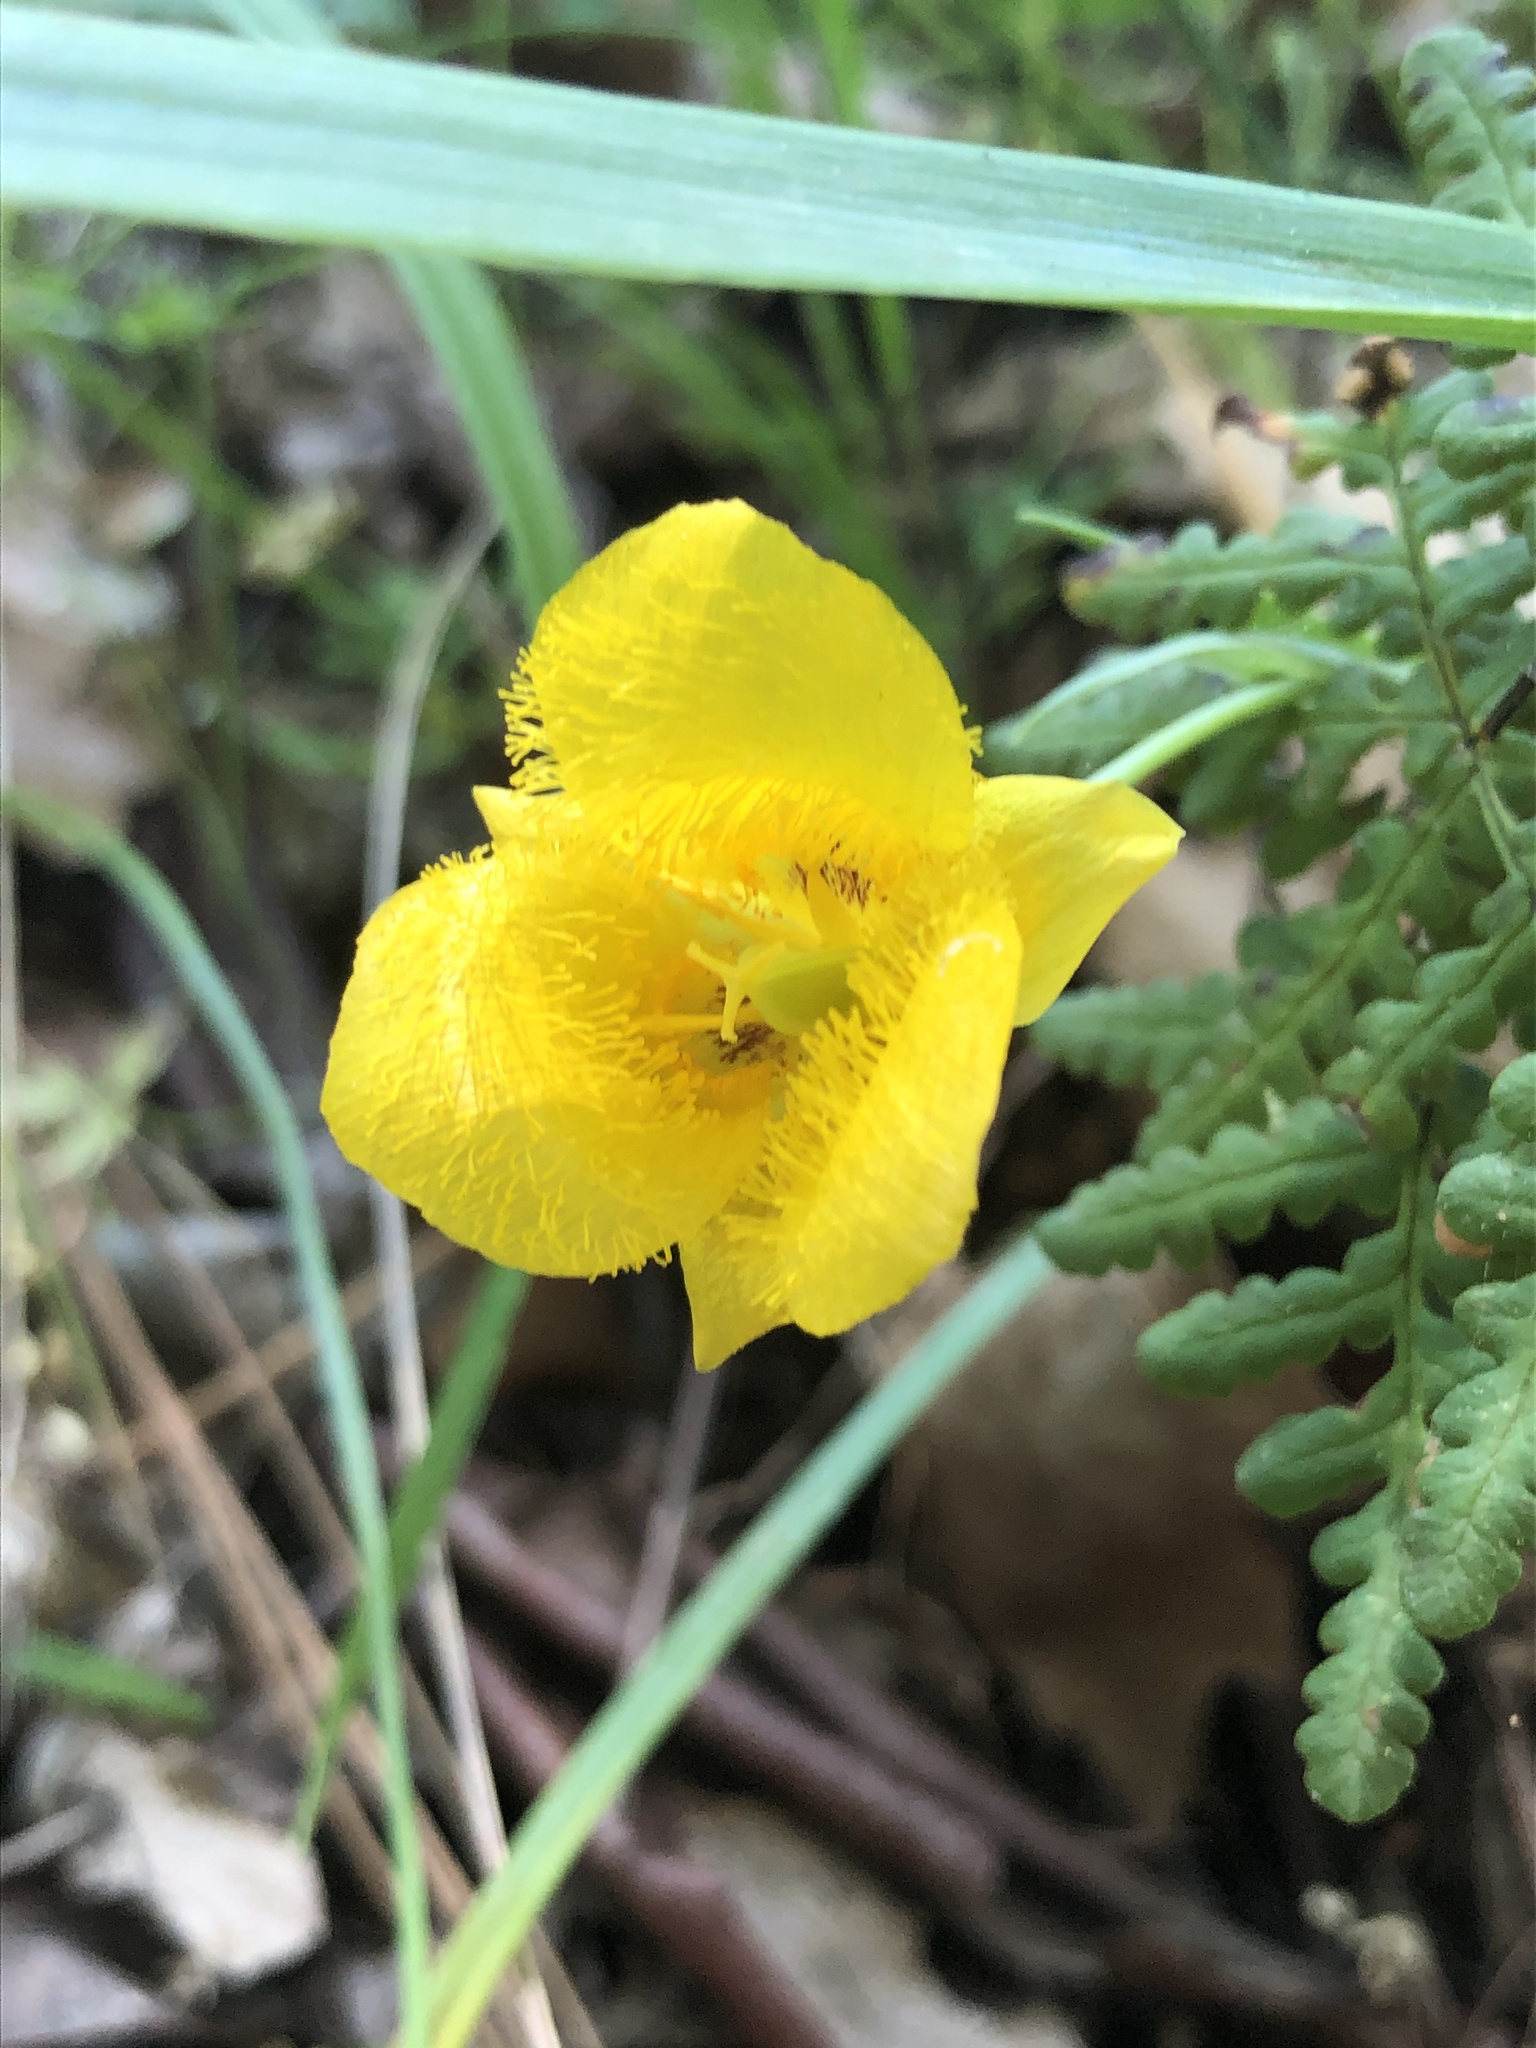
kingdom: Plantae
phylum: Tracheophyta
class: Liliopsida
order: Liliales
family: Liliaceae
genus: Calochortus
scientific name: Calochortus monophyllus
